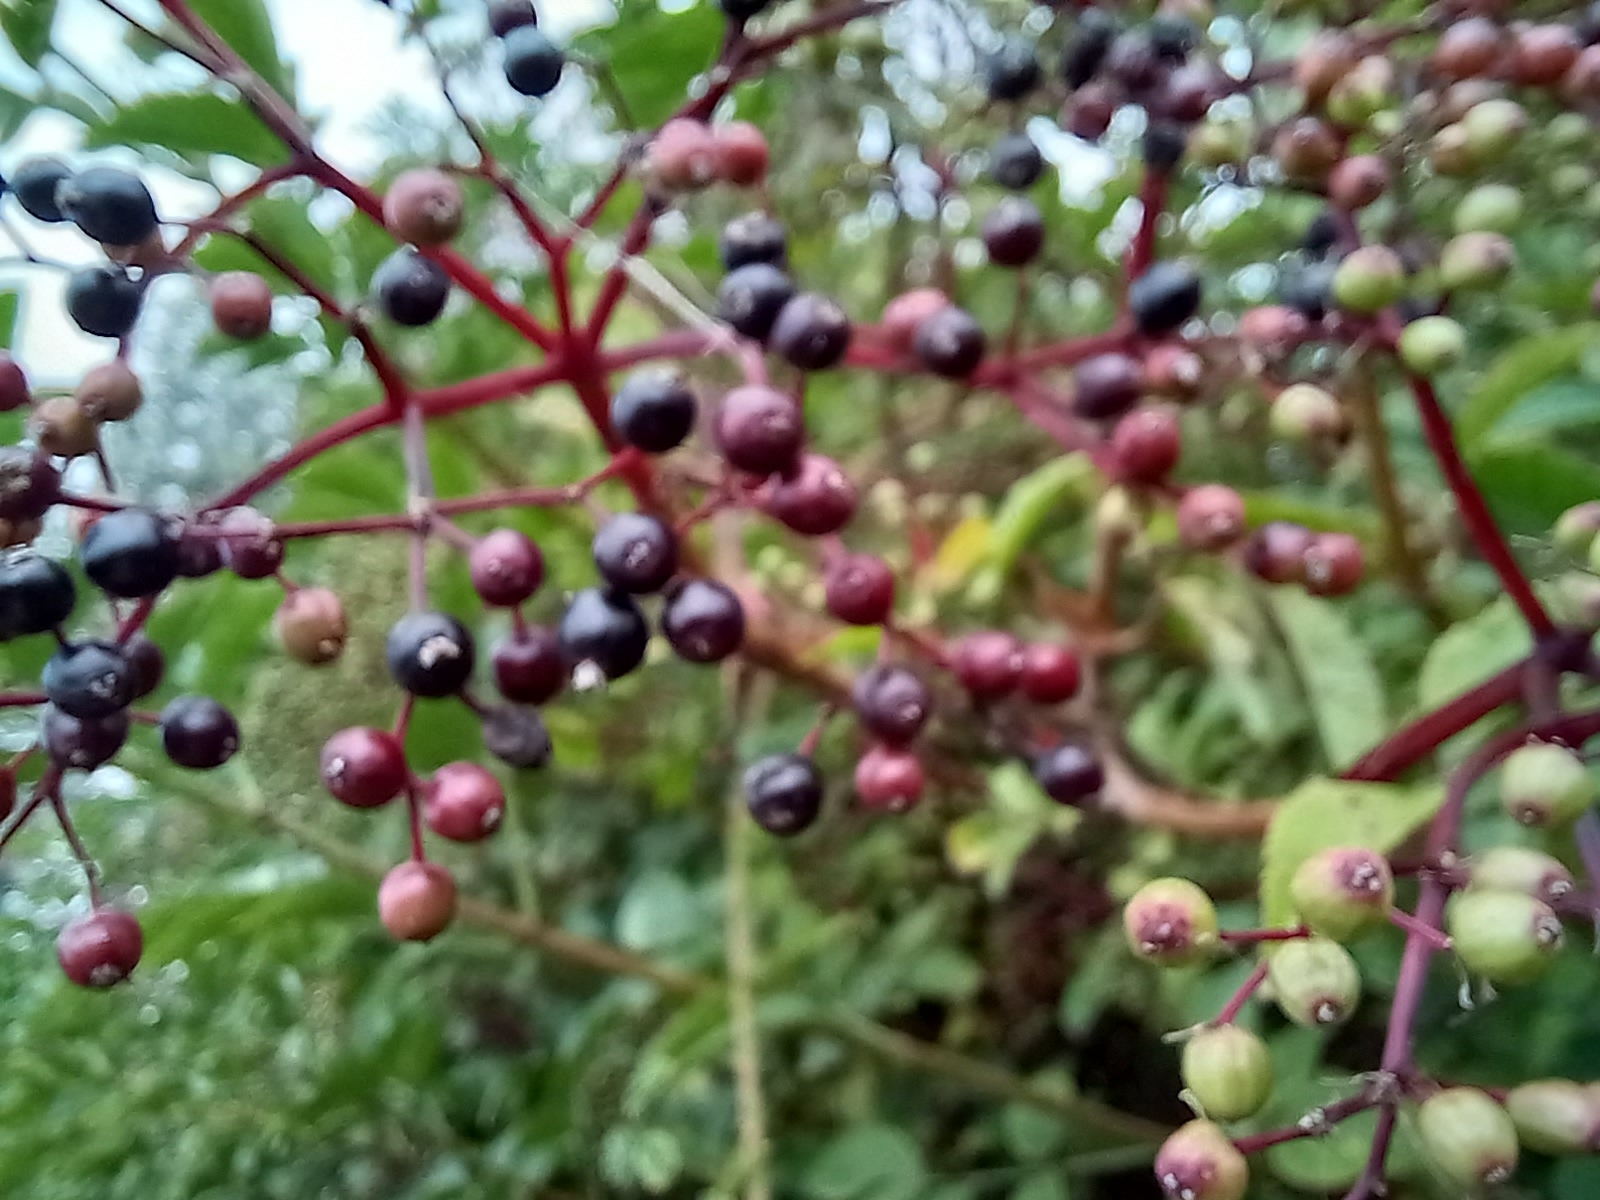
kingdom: Plantae
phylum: Tracheophyta
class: Magnoliopsida
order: Dipsacales
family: Viburnaceae
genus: Sambucus
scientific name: Sambucus nigra
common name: Elder
